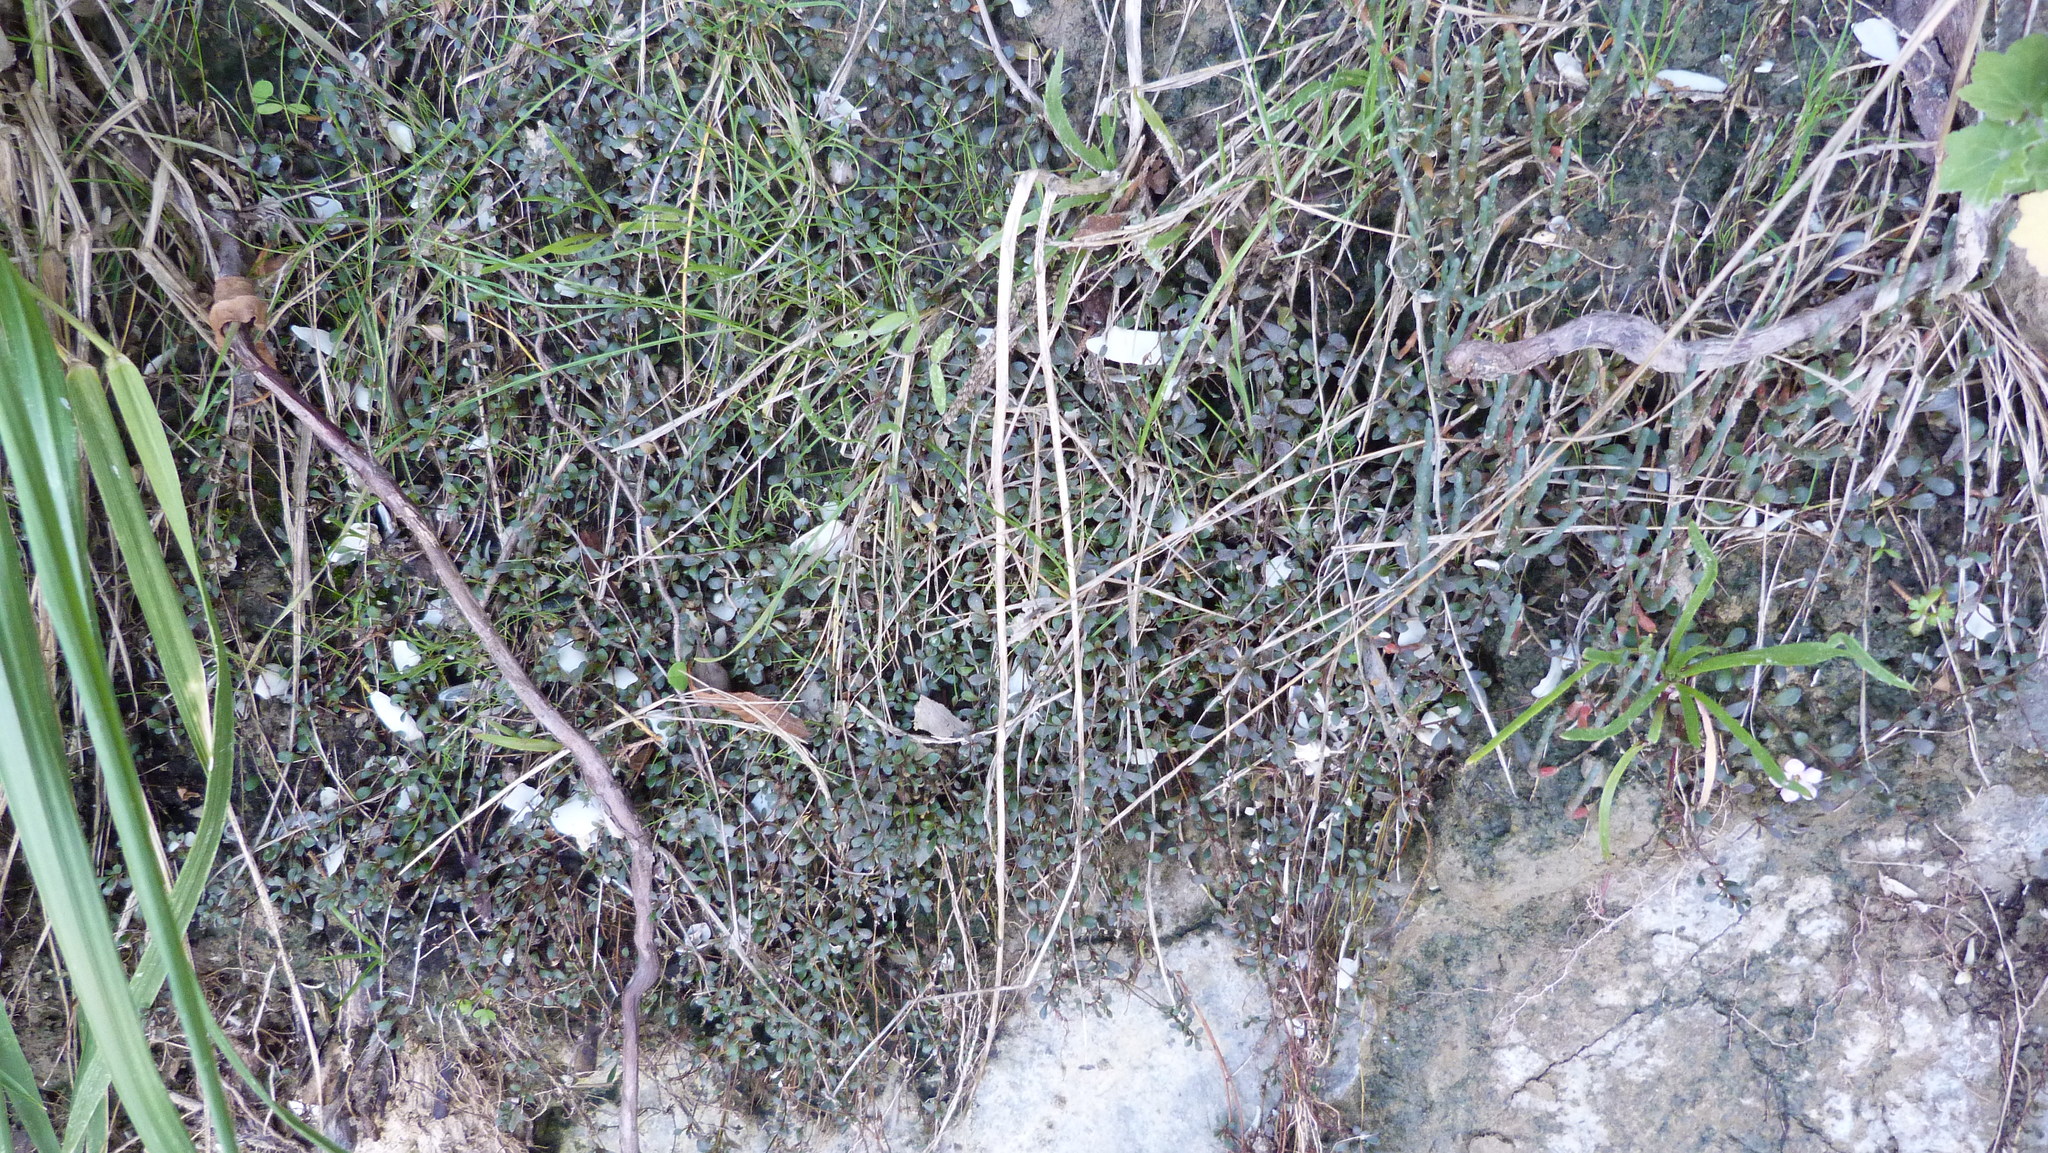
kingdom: Plantae
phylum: Tracheophyta
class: Magnoliopsida
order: Ericales
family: Primulaceae
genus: Samolus
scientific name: Samolus repens
